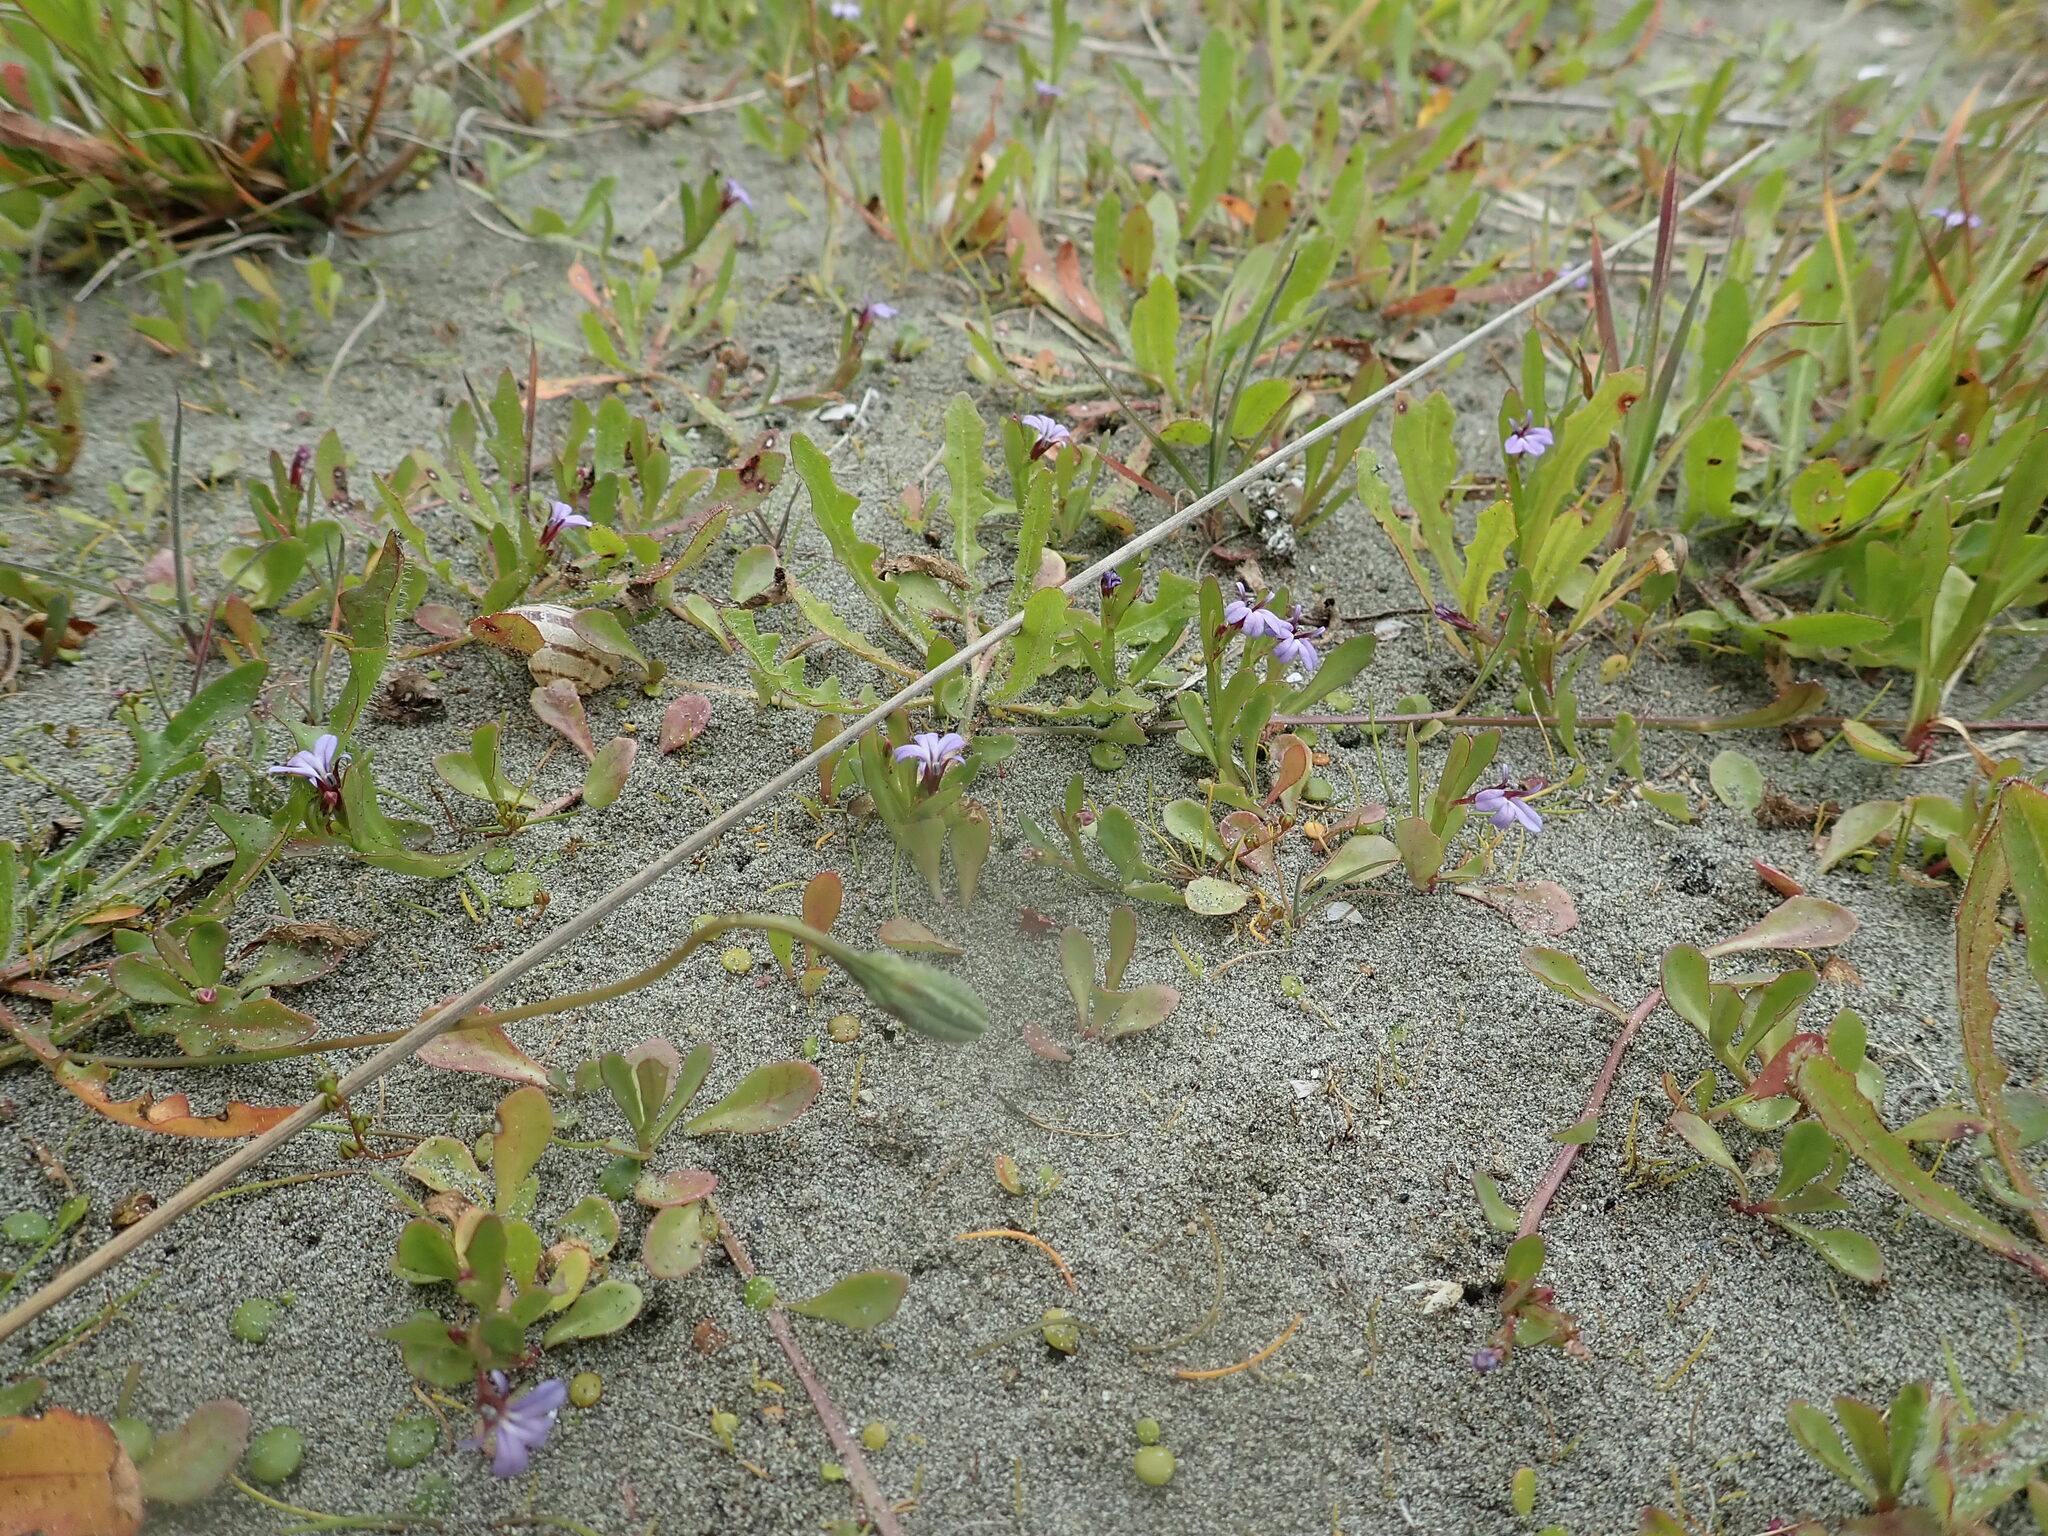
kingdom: Plantae
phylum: Tracheophyta
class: Magnoliopsida
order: Asterales
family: Campanulaceae
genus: Lobelia
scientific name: Lobelia anceps
